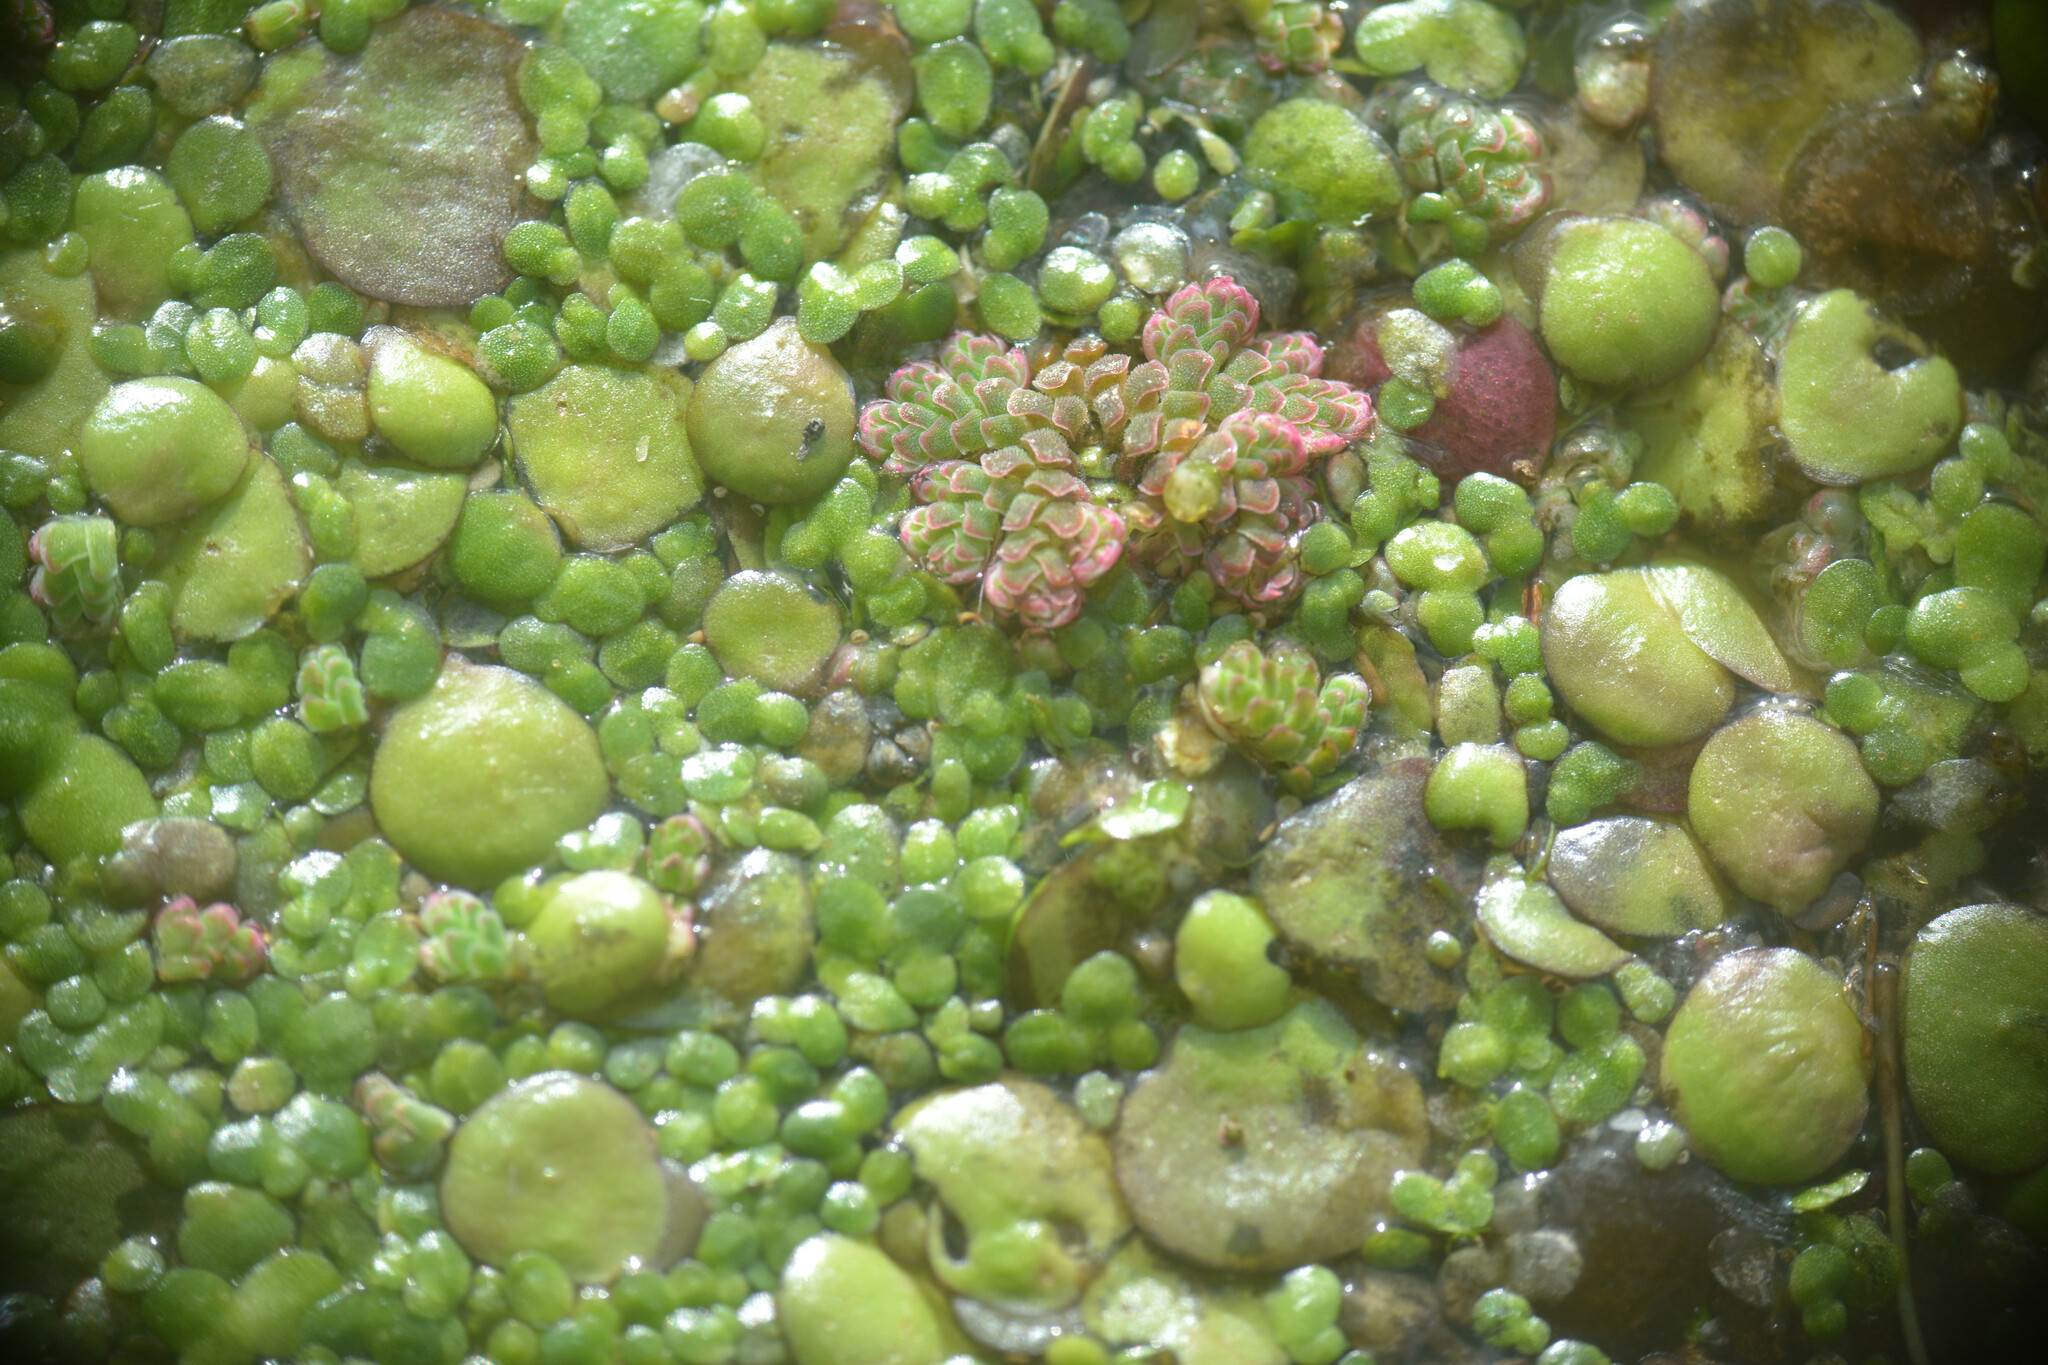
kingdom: Plantae
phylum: Tracheophyta
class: Liliopsida
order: Alismatales
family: Araceae
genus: Spirodela
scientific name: Spirodela polyrhiza
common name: Great duckweed
